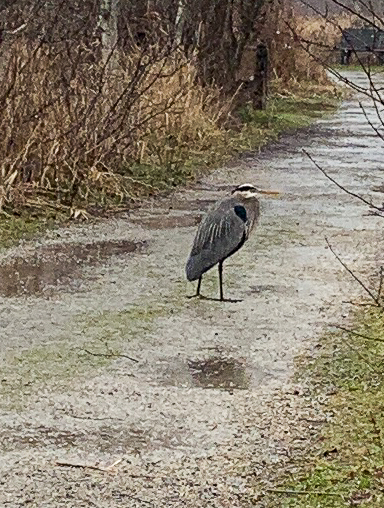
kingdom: Animalia
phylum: Chordata
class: Aves
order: Pelecaniformes
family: Ardeidae
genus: Ardea
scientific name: Ardea herodias
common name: Great blue heron
